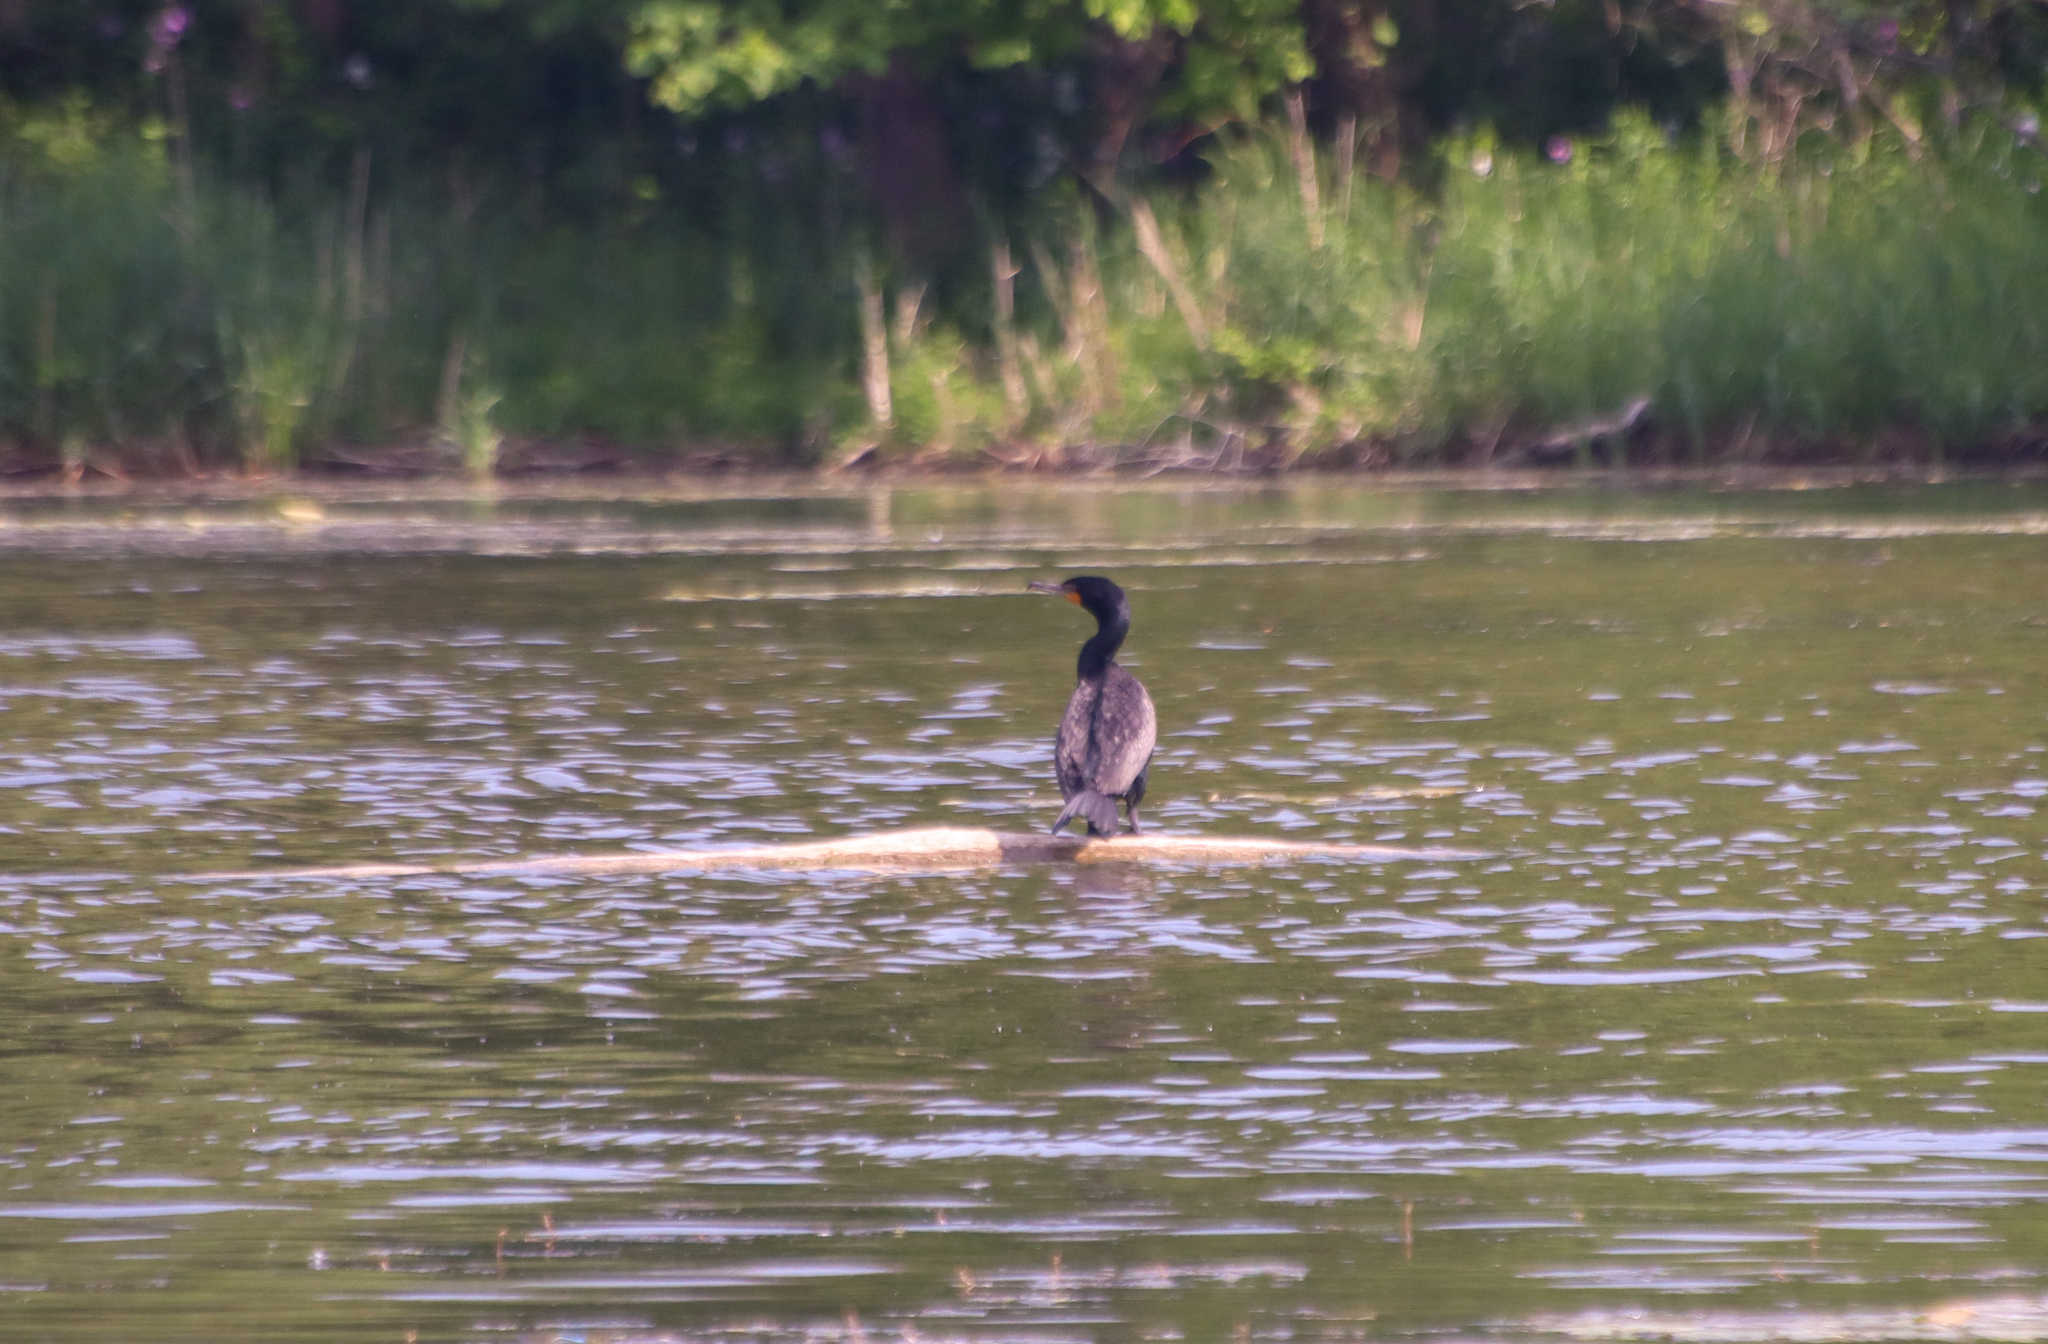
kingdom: Animalia
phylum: Chordata
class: Aves
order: Suliformes
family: Phalacrocoracidae
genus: Phalacrocorax
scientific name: Phalacrocorax auritus
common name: Double-crested cormorant
